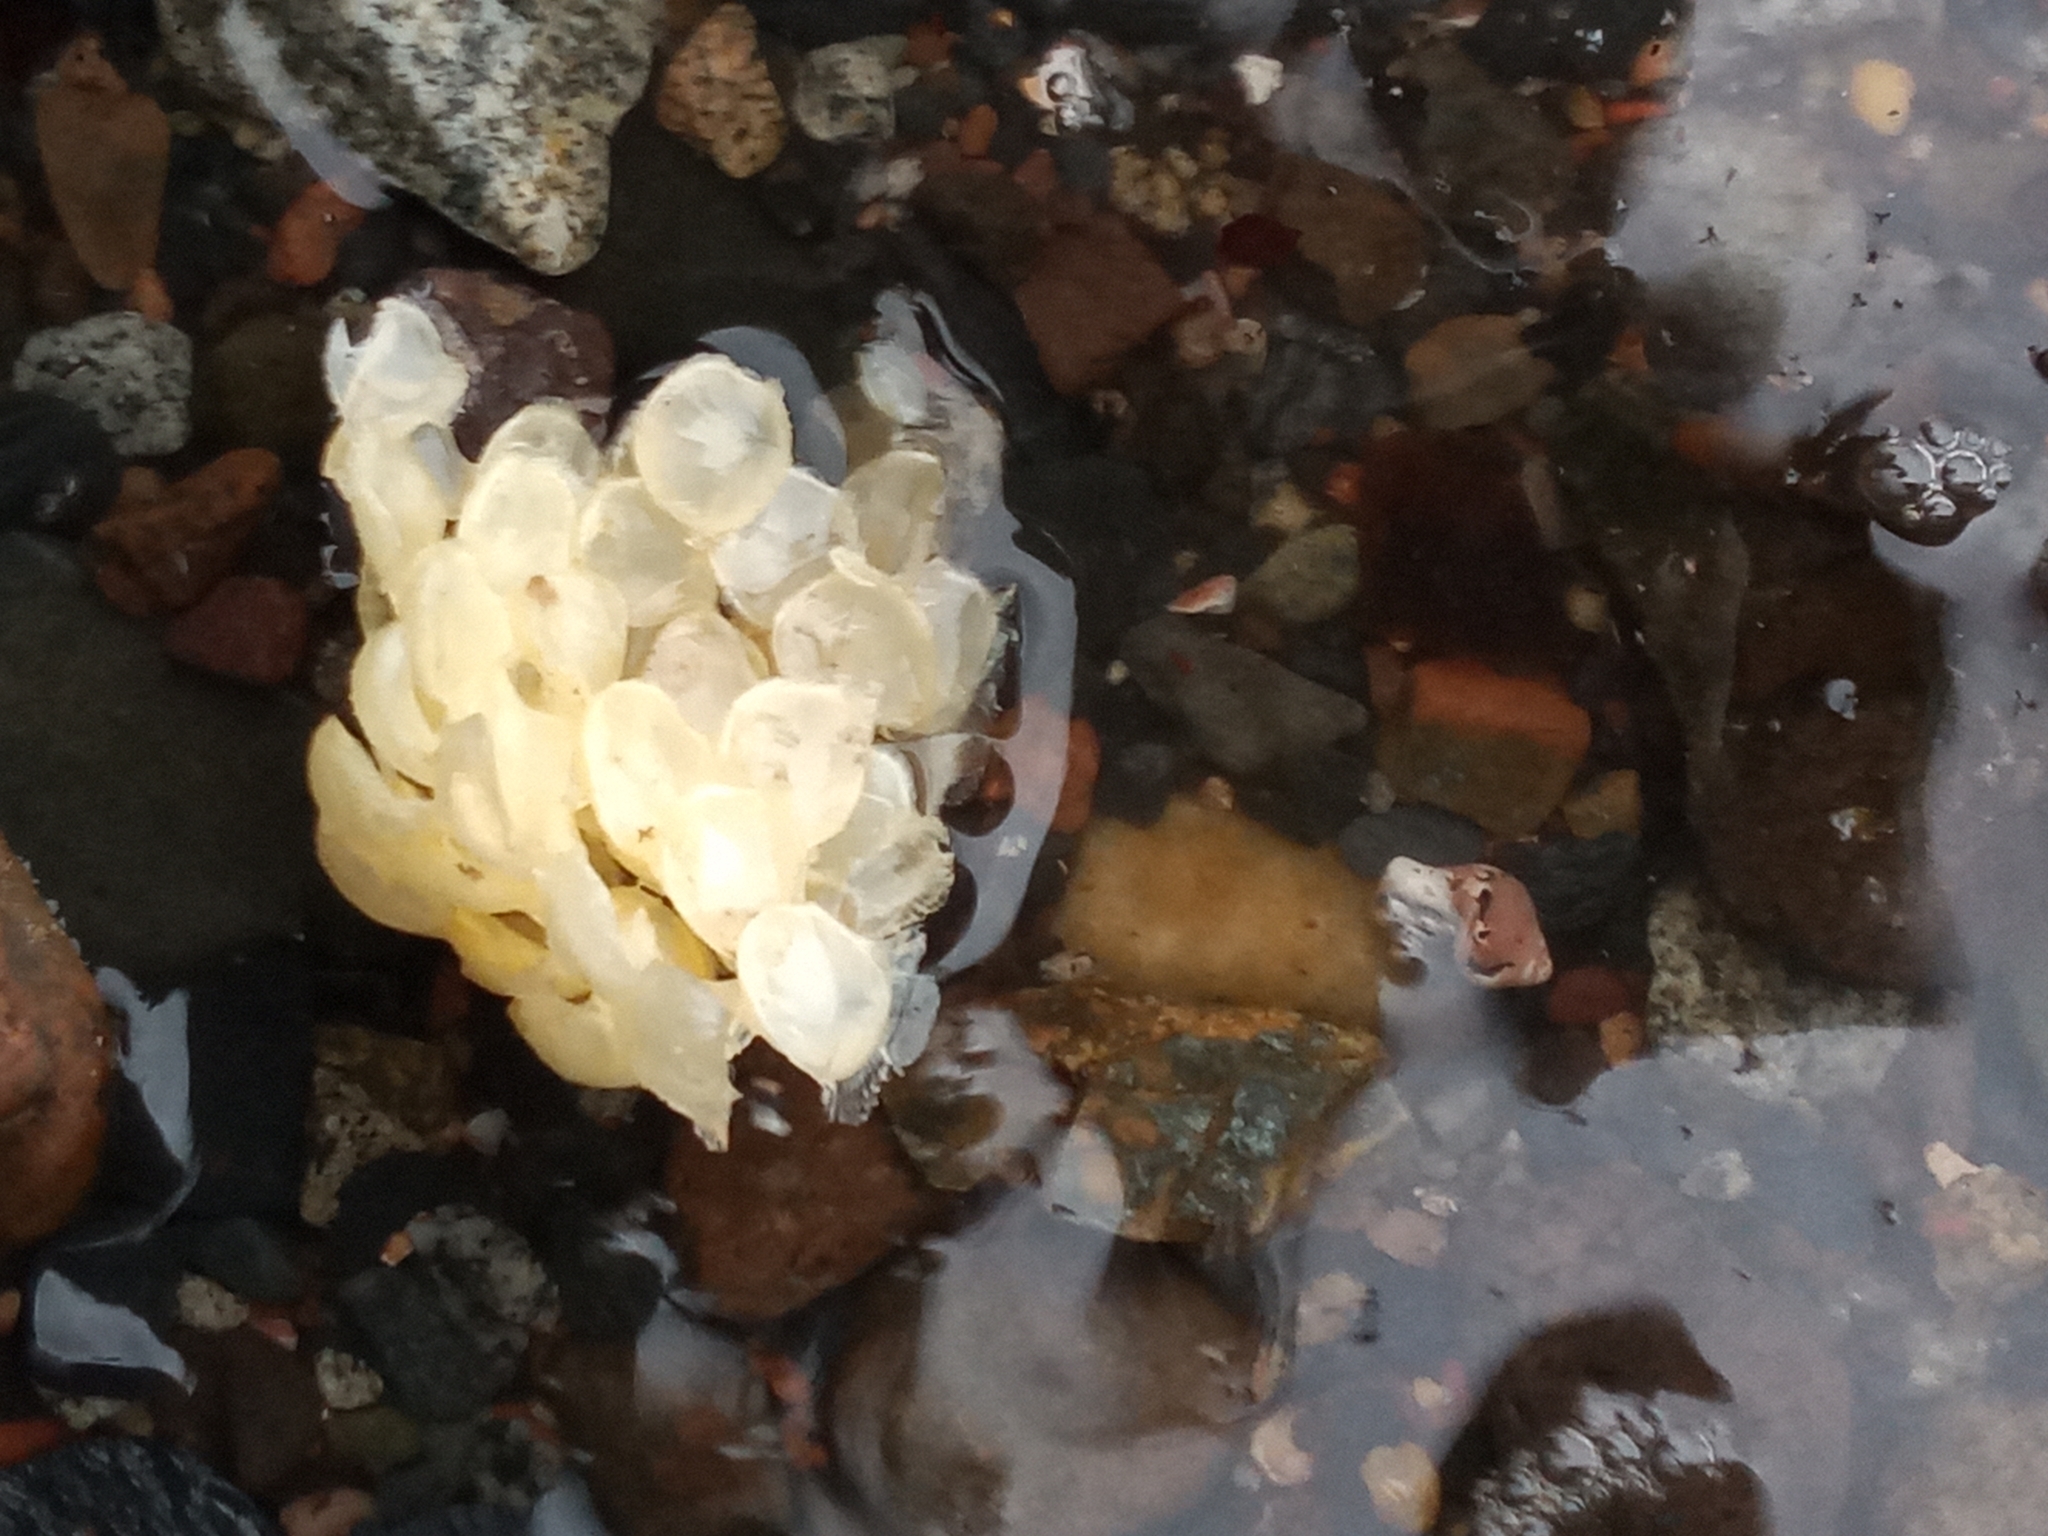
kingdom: Animalia
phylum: Mollusca
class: Gastropoda
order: Neogastropoda
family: Buccinidae
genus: Buccinum
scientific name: Buccinum undatum
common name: Common whelk
